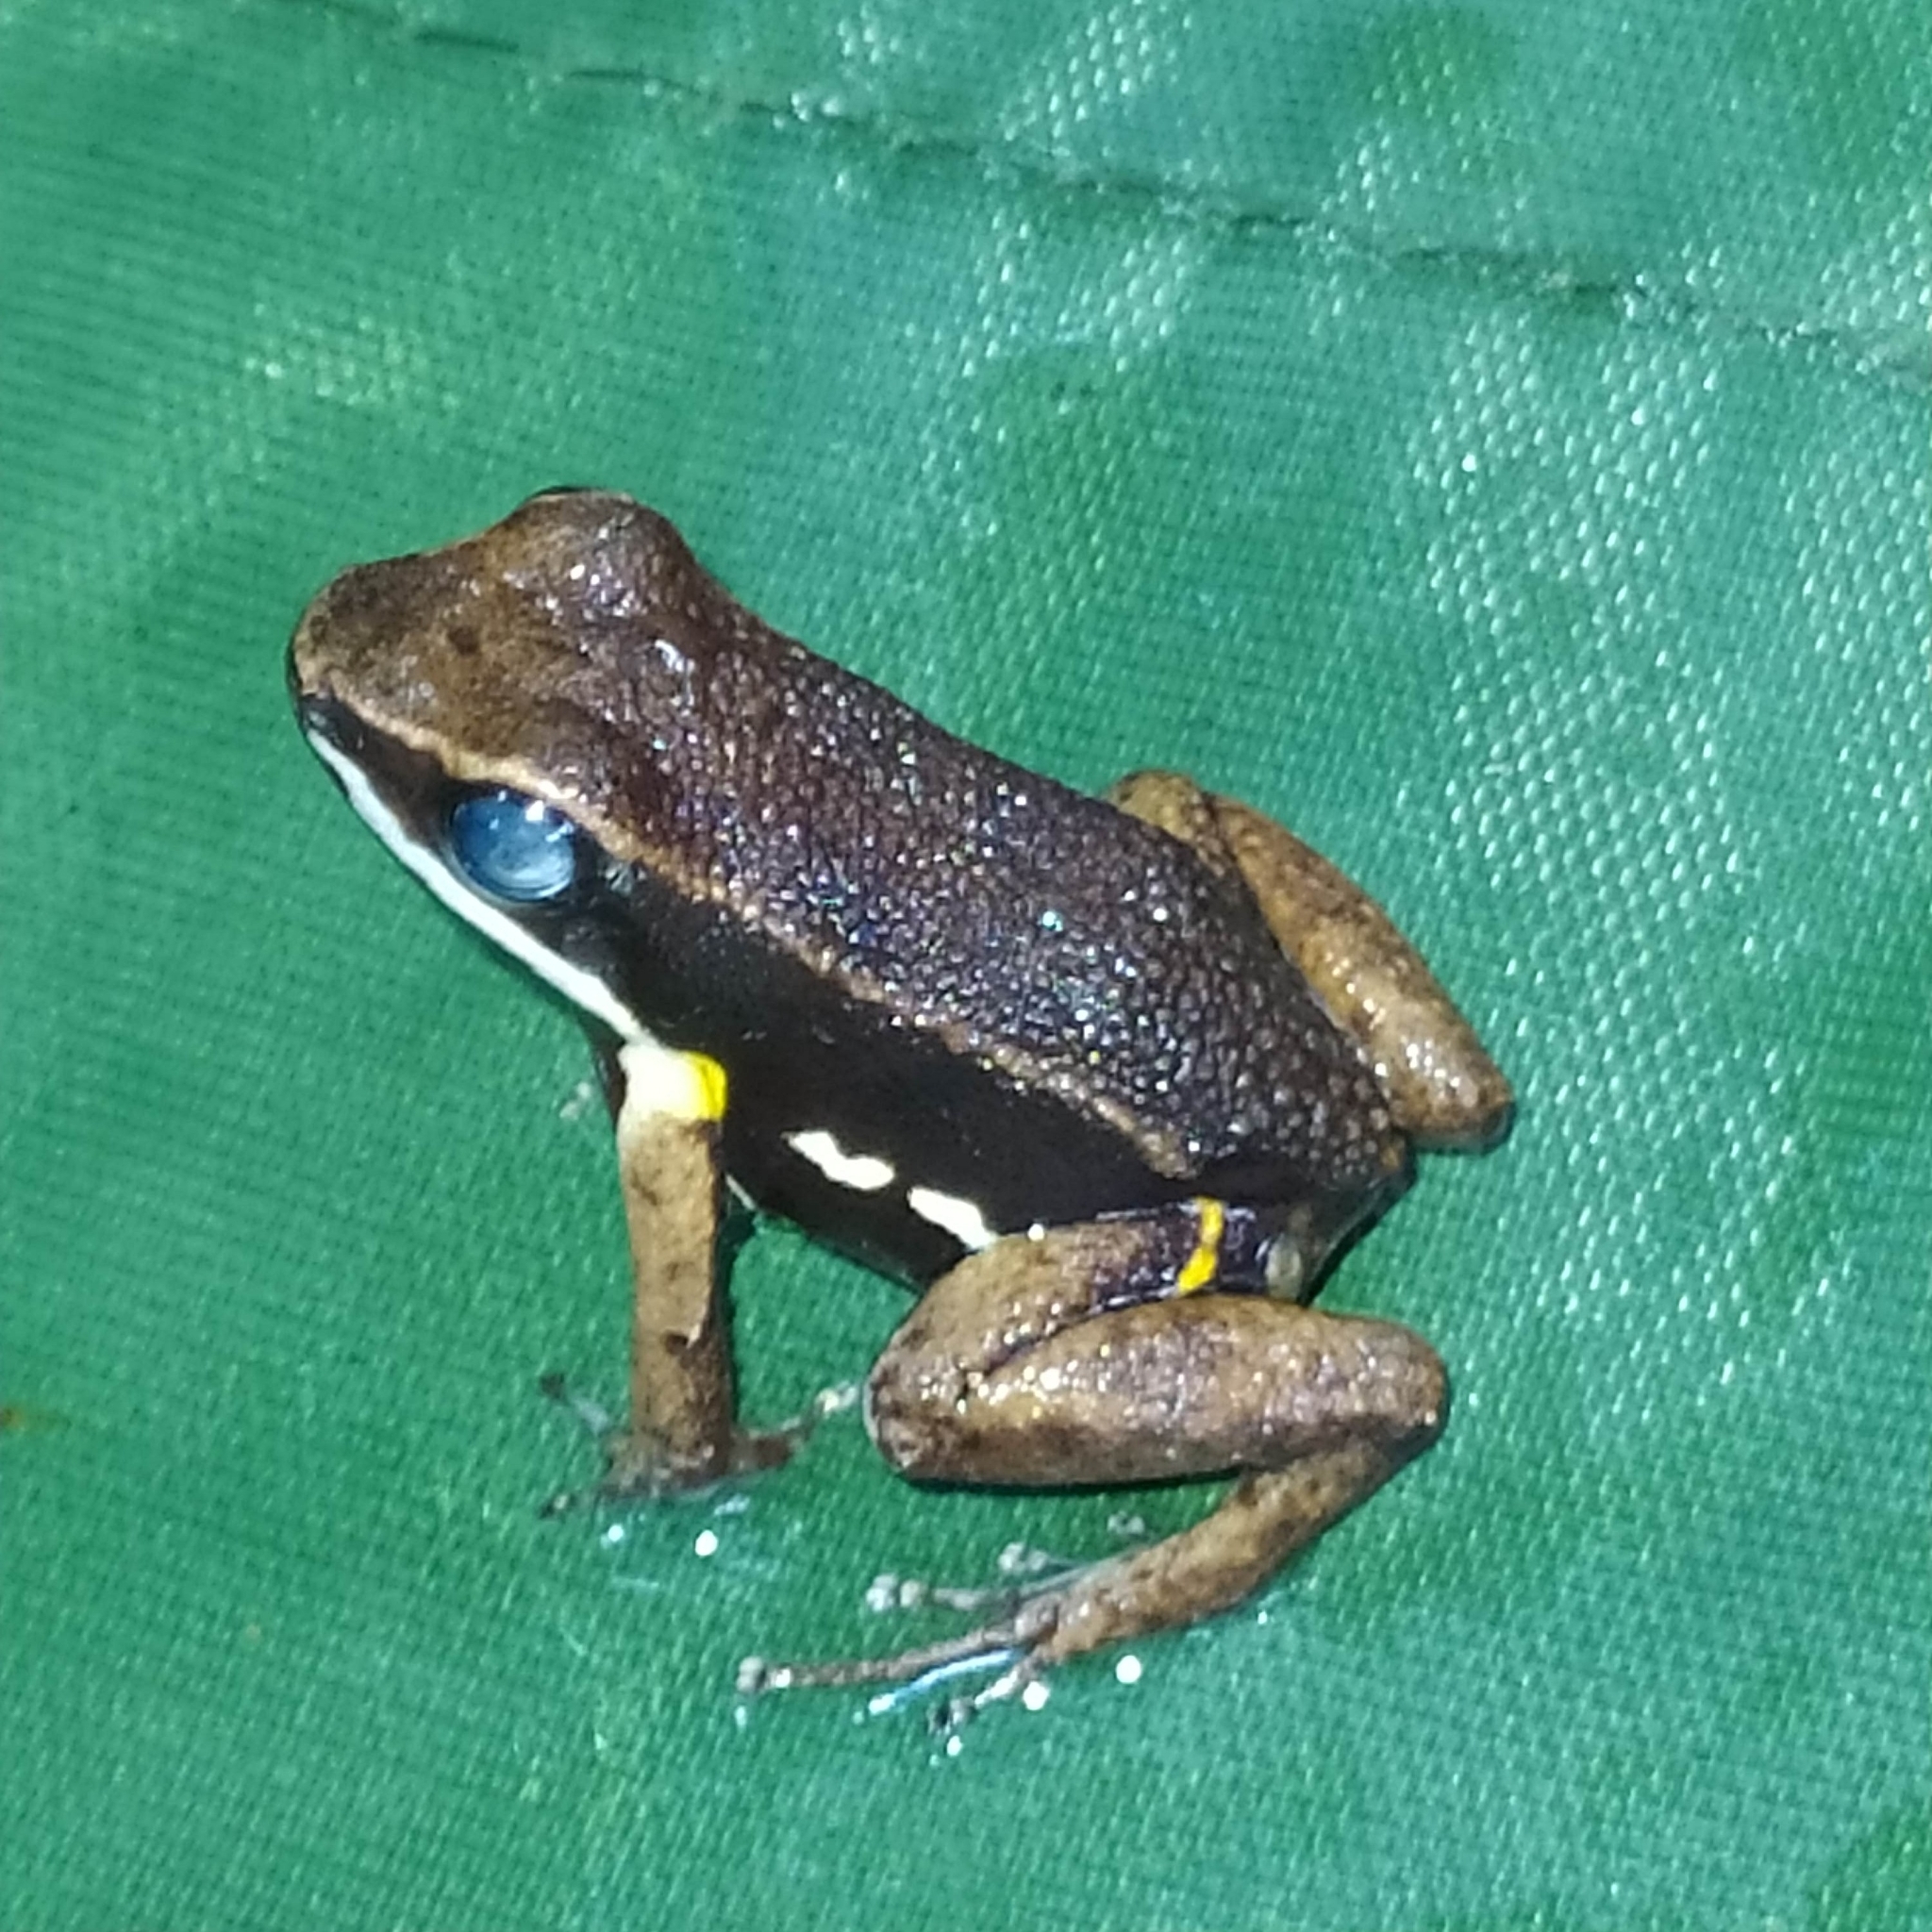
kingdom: Animalia
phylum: Chordata
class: Amphibia
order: Anura
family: Aromobatidae
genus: Allobates
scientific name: Allobates femoralis
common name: Brilliant-thighed poison frog
